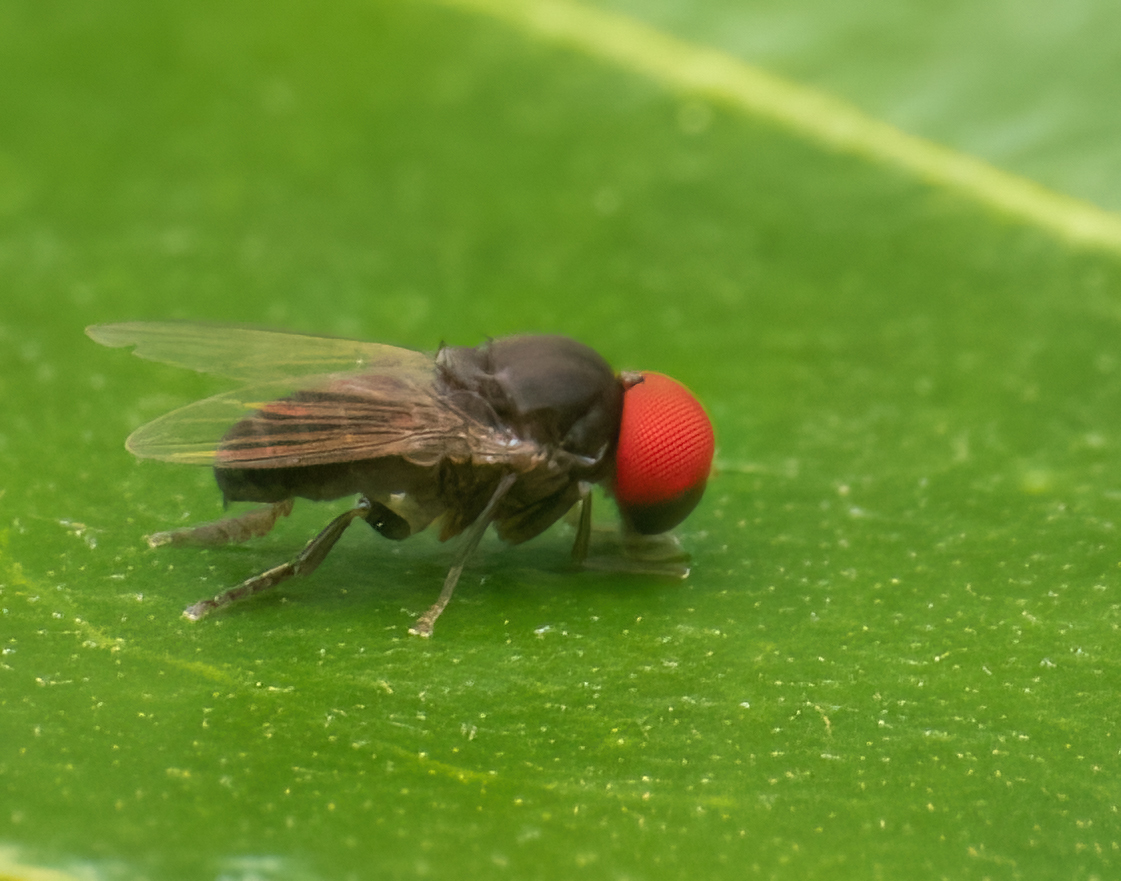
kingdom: Animalia
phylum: Arthropoda
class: Insecta
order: Diptera
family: Platypezidae
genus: Lindneromyia
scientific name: Lindneromyia argyrogyna
